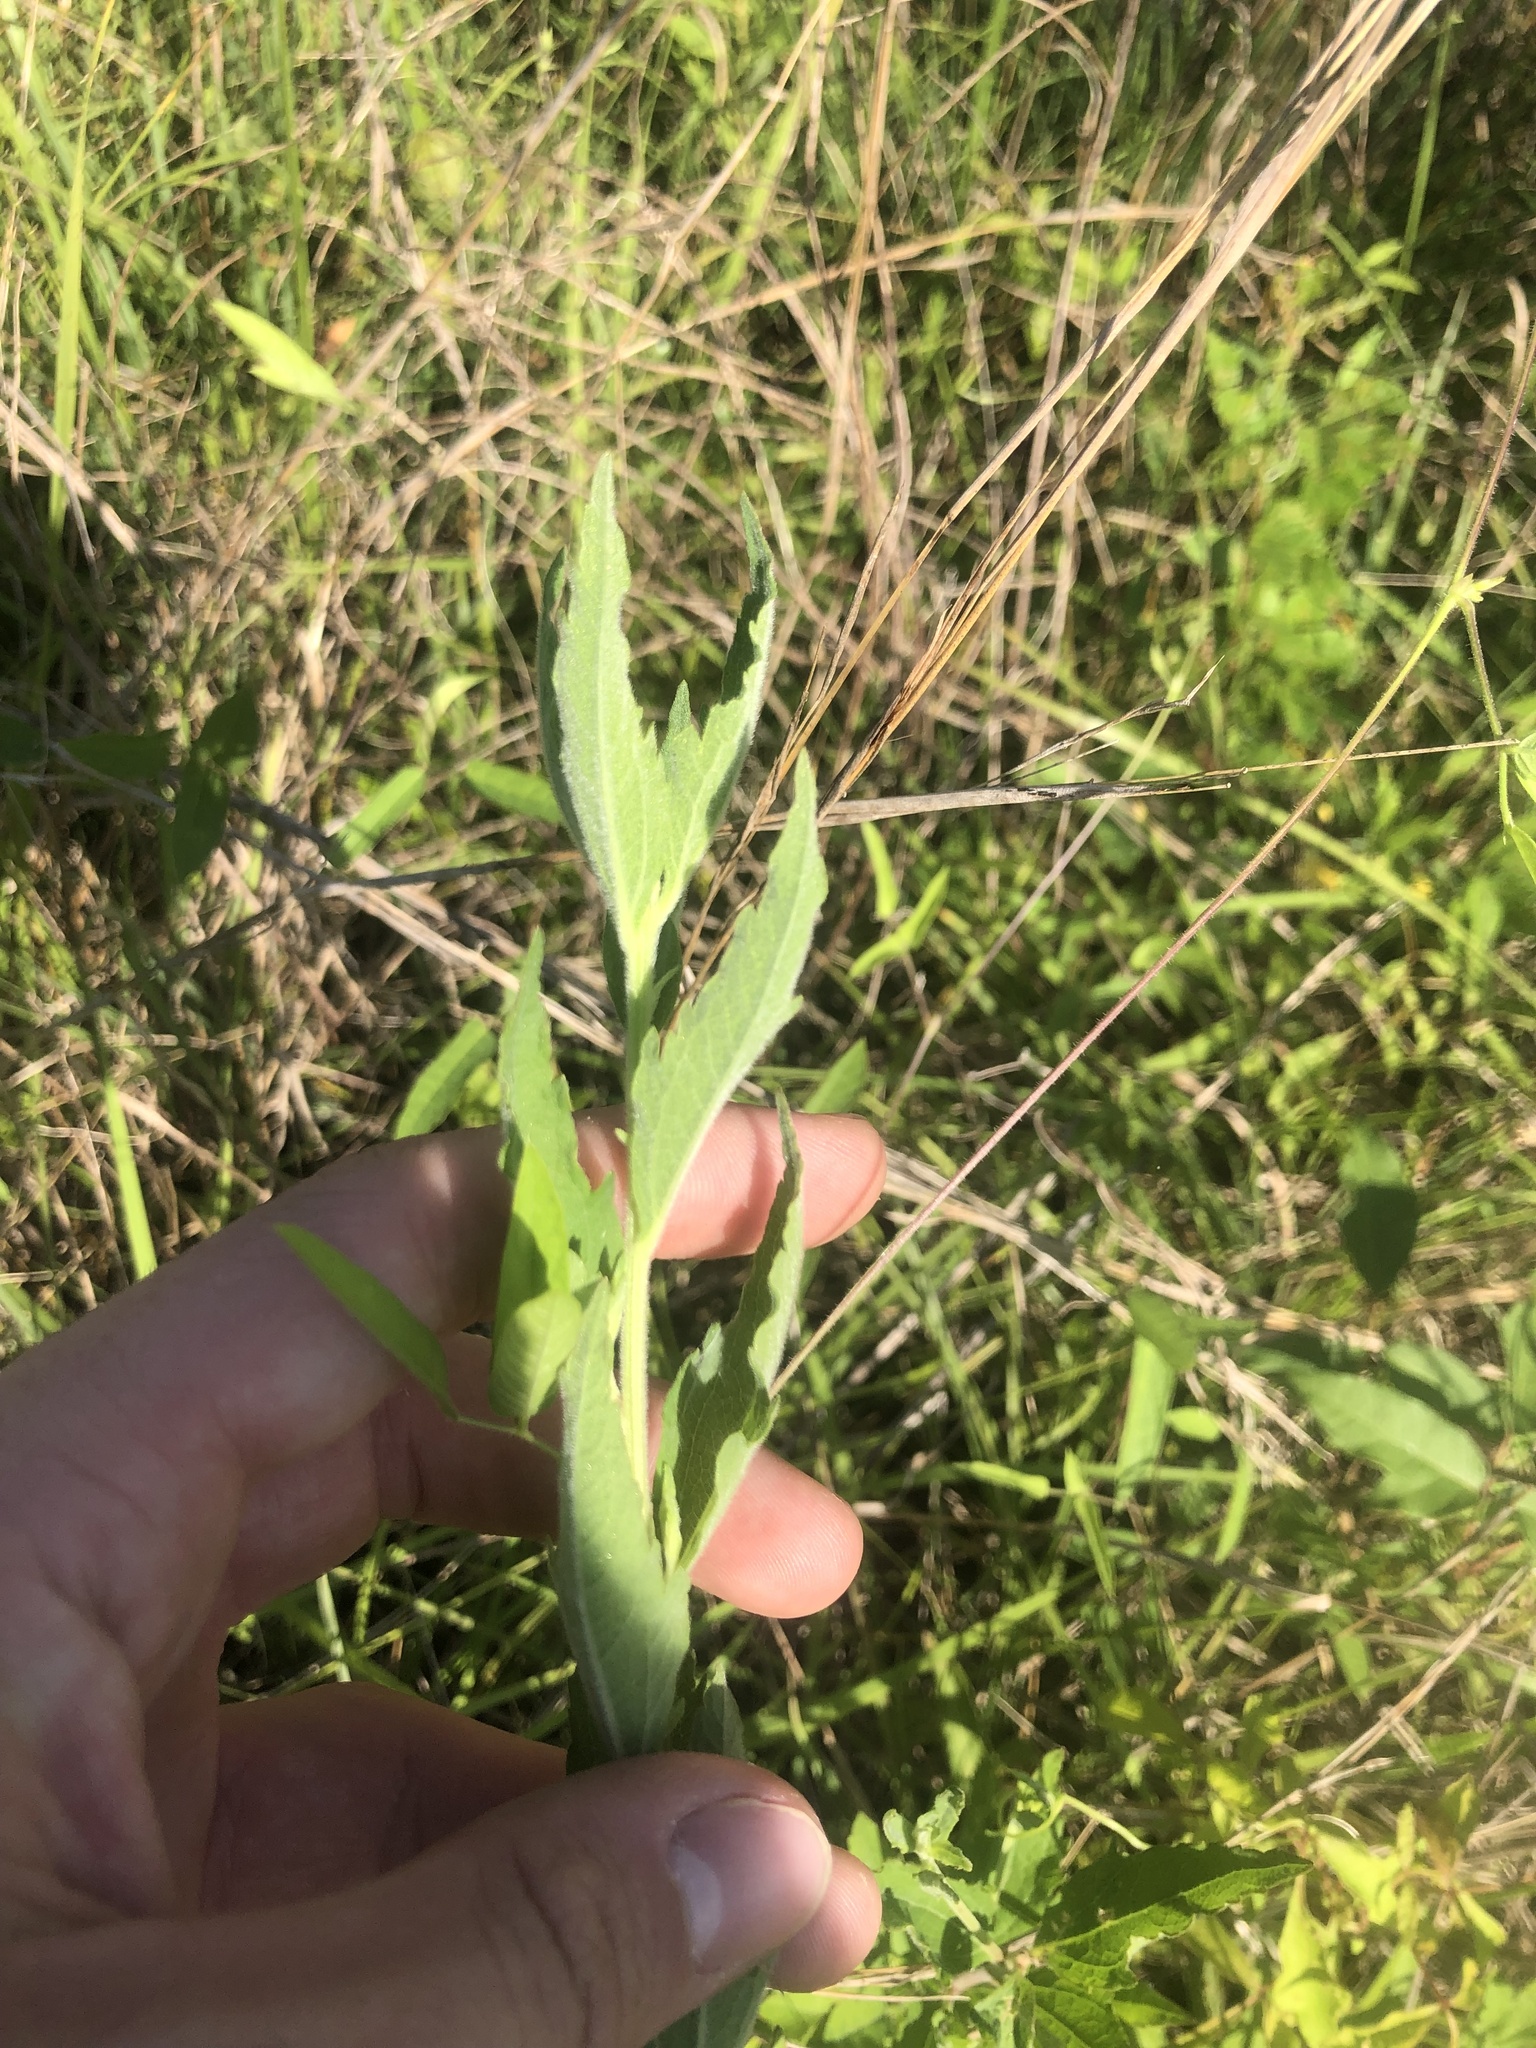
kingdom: Plantae
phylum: Tracheophyta
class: Magnoliopsida
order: Asterales
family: Asteraceae
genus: Brickellia
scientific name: Brickellia macranthra
